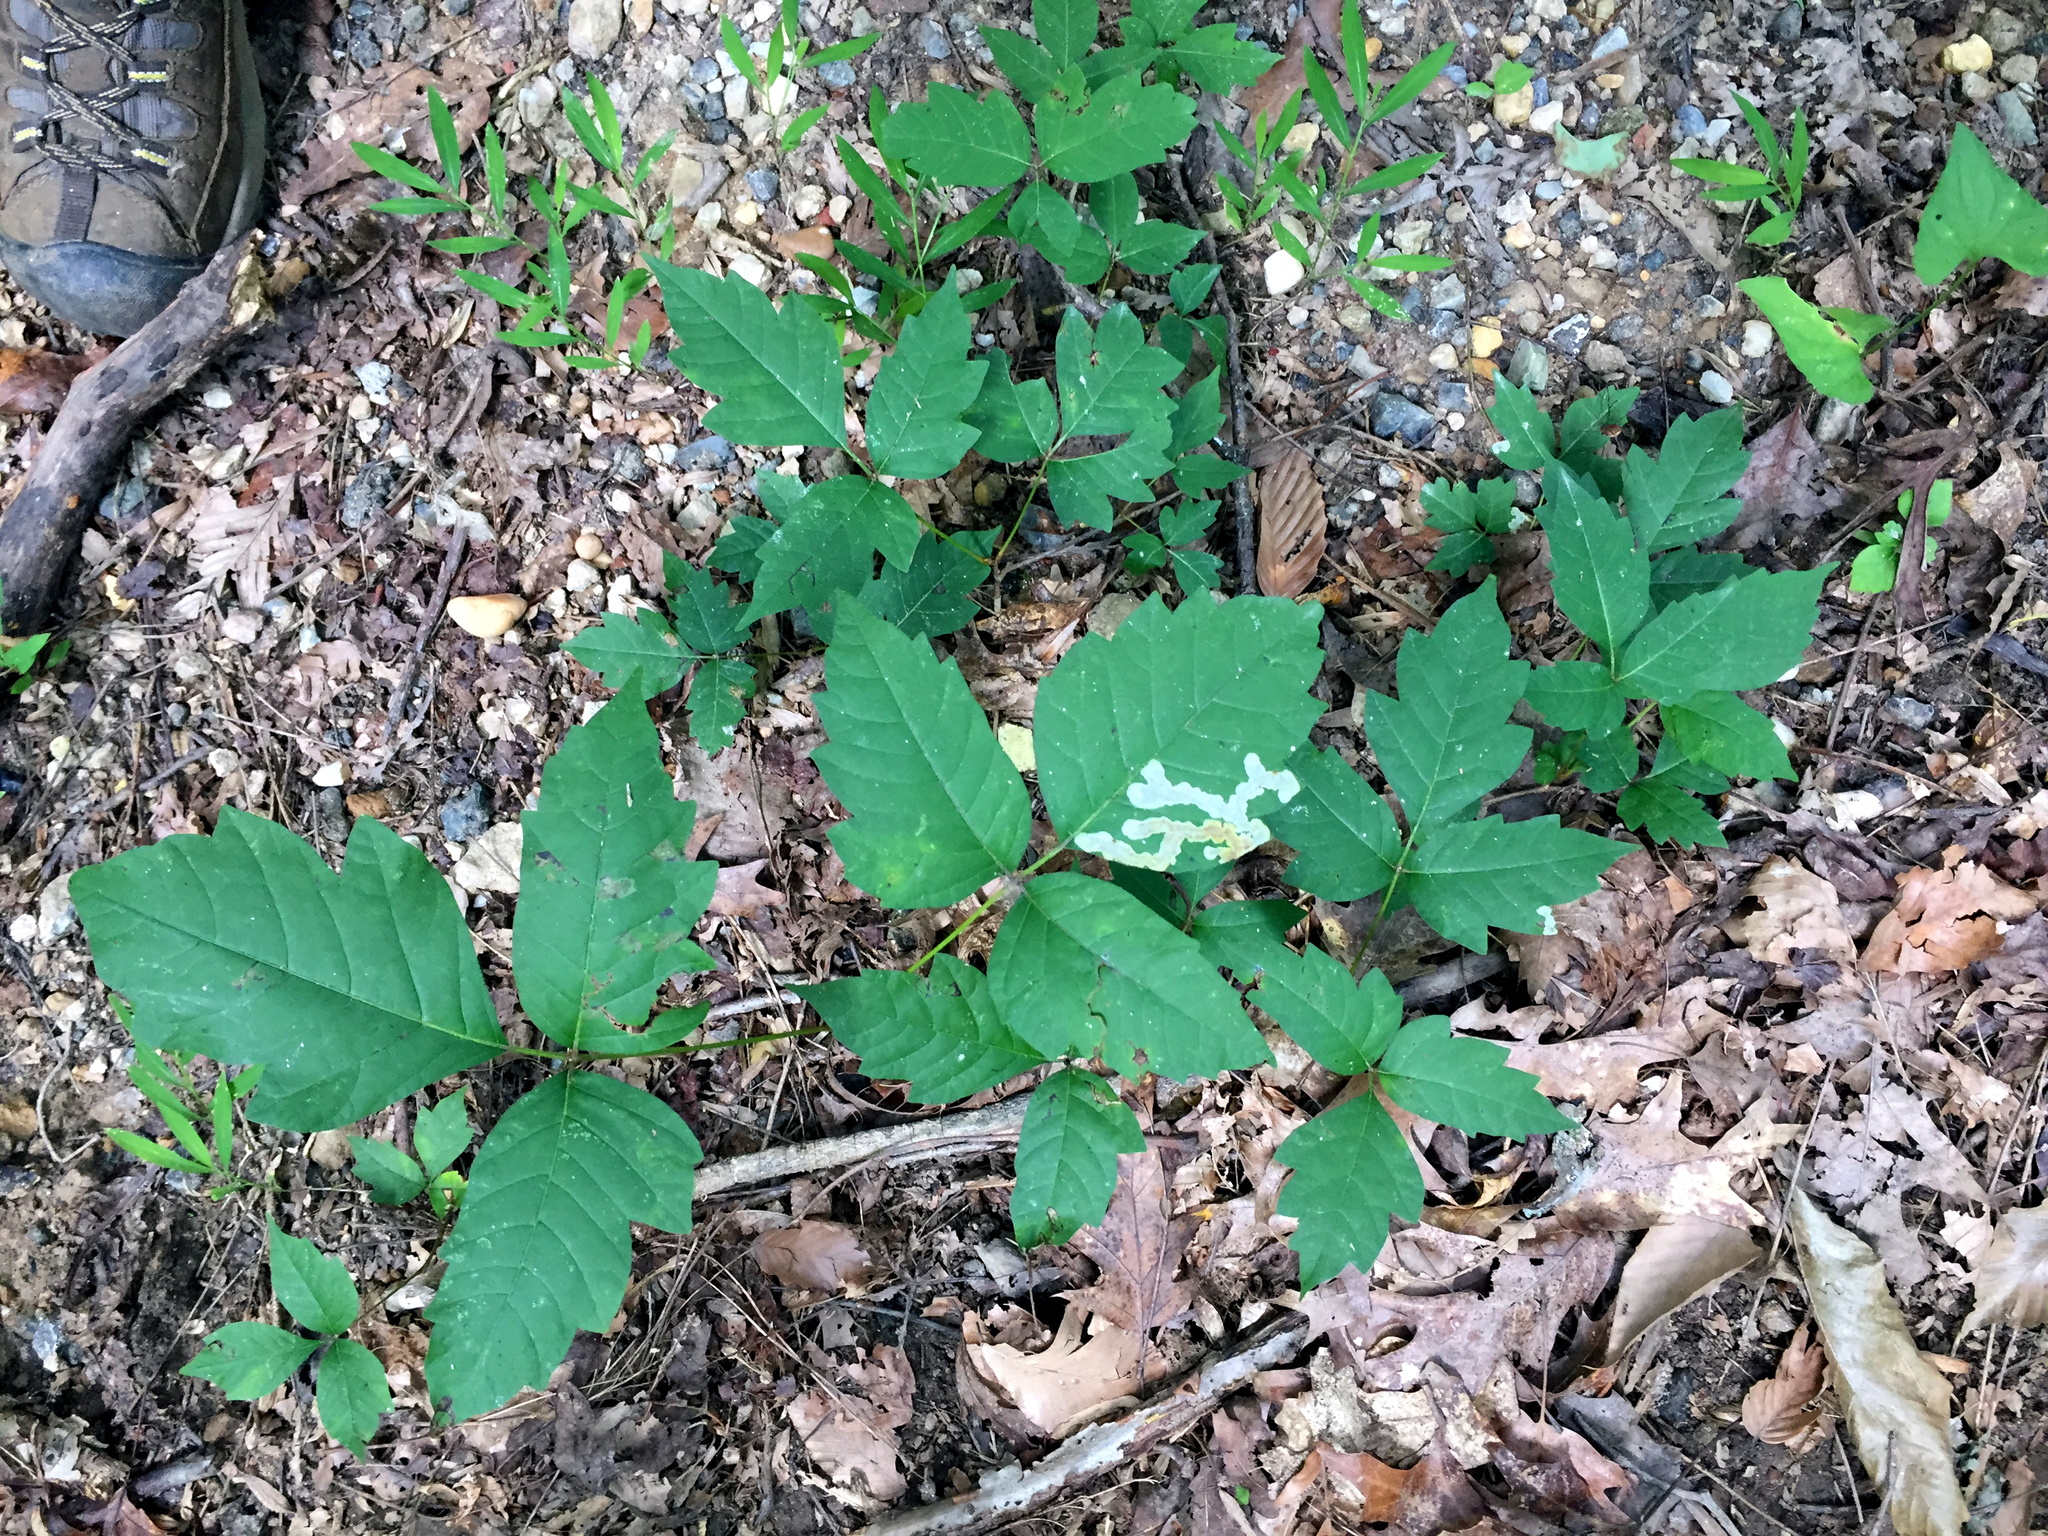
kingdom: Plantae
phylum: Tracheophyta
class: Magnoliopsida
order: Sapindales
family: Anacardiaceae
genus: Toxicodendron
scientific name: Toxicodendron radicans
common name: Poison ivy
